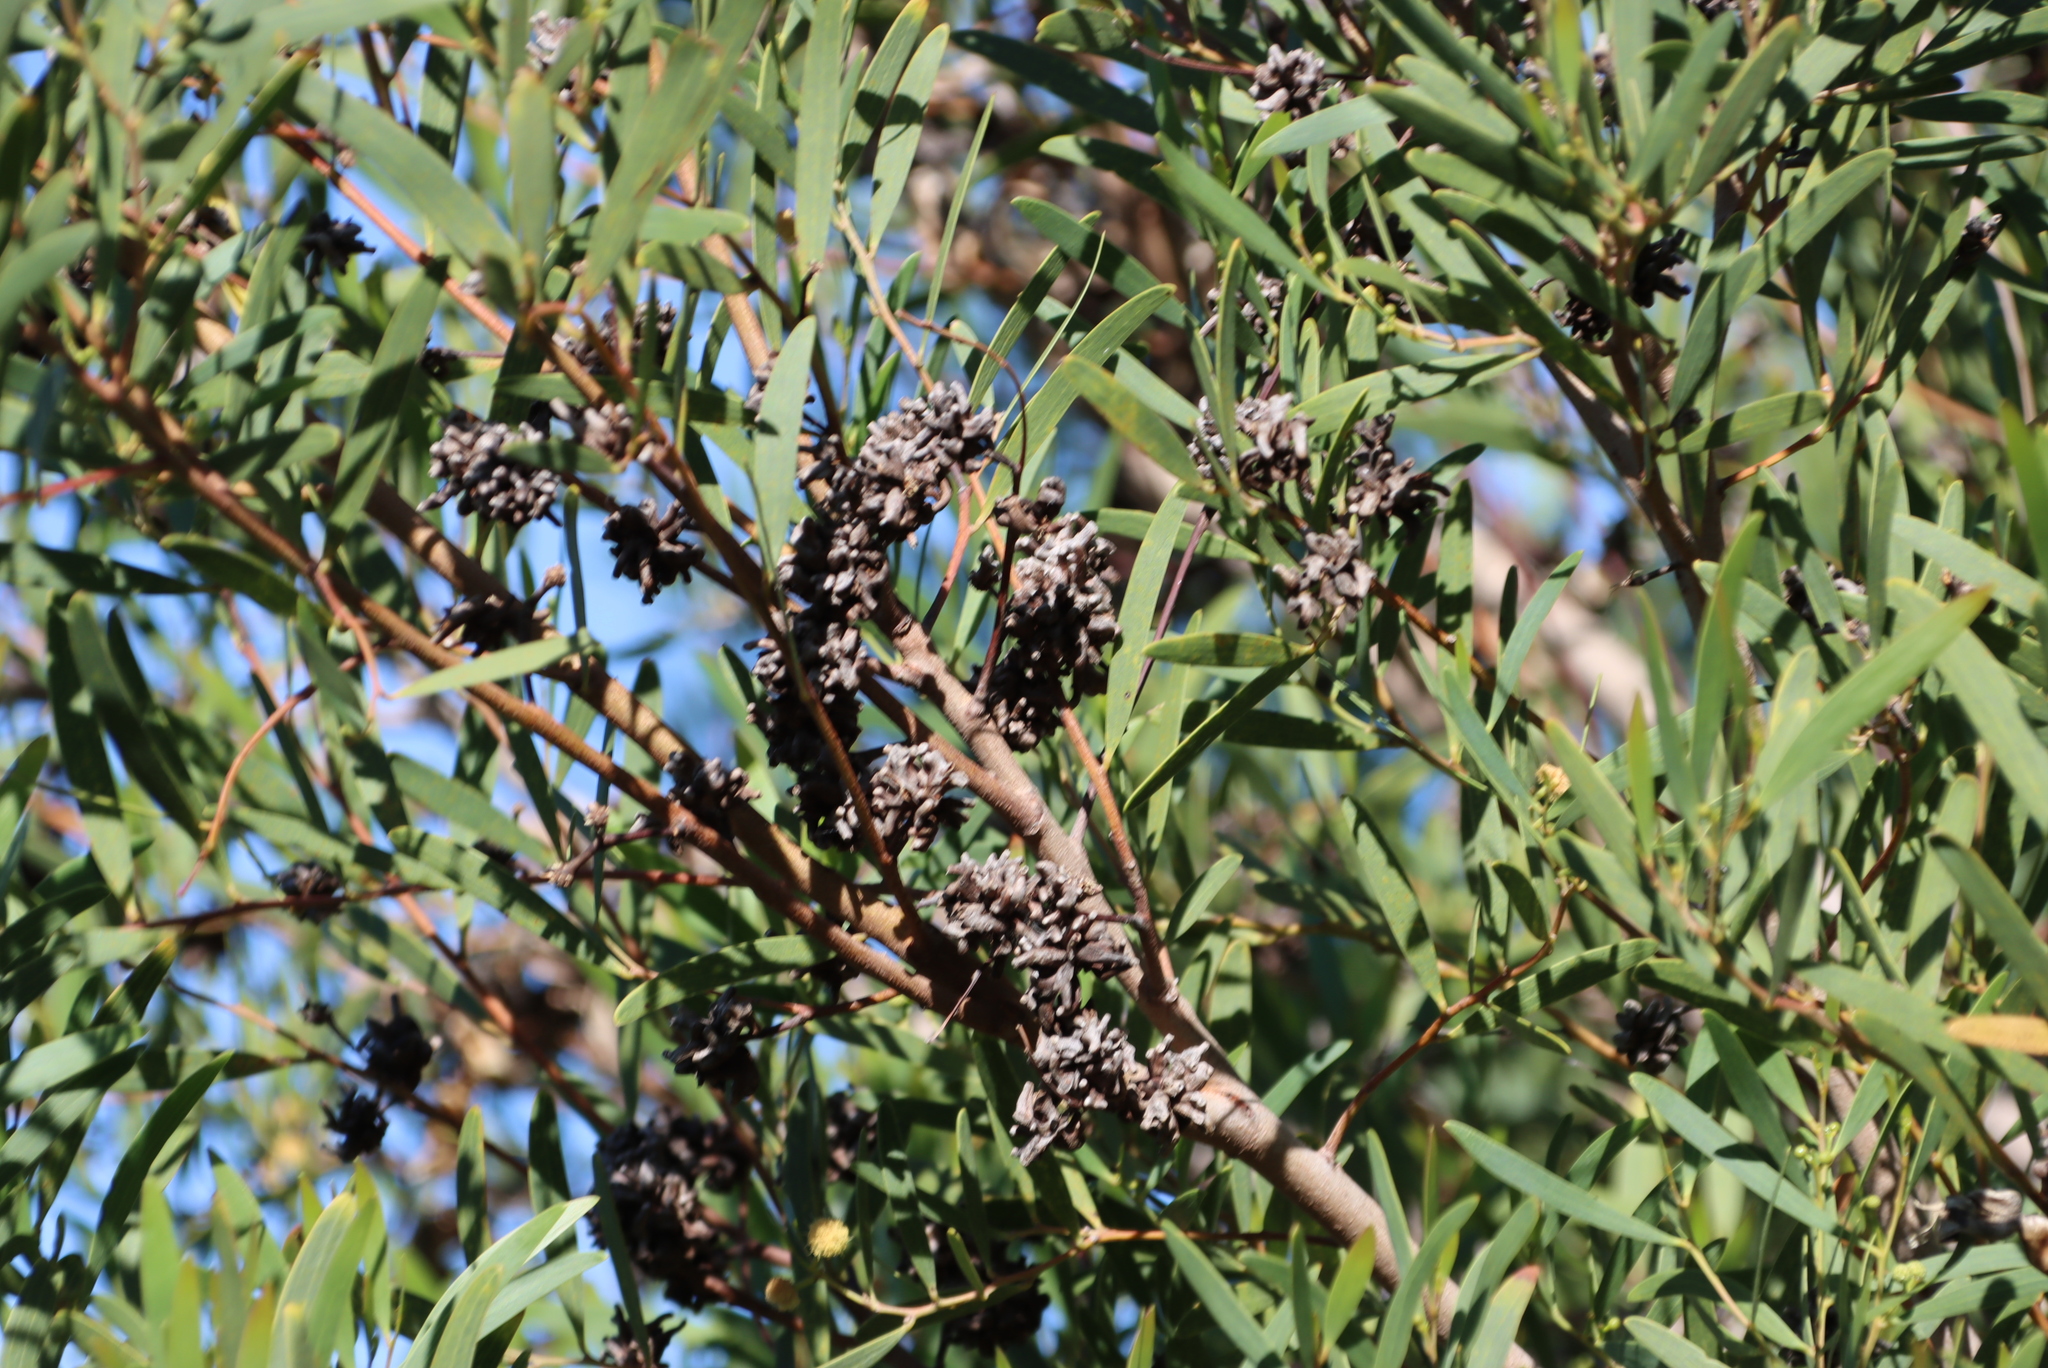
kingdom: Animalia
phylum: Arthropoda
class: Insecta
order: Diptera
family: Cecidomyiidae
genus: Dasineura
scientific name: Dasineura dielsi
